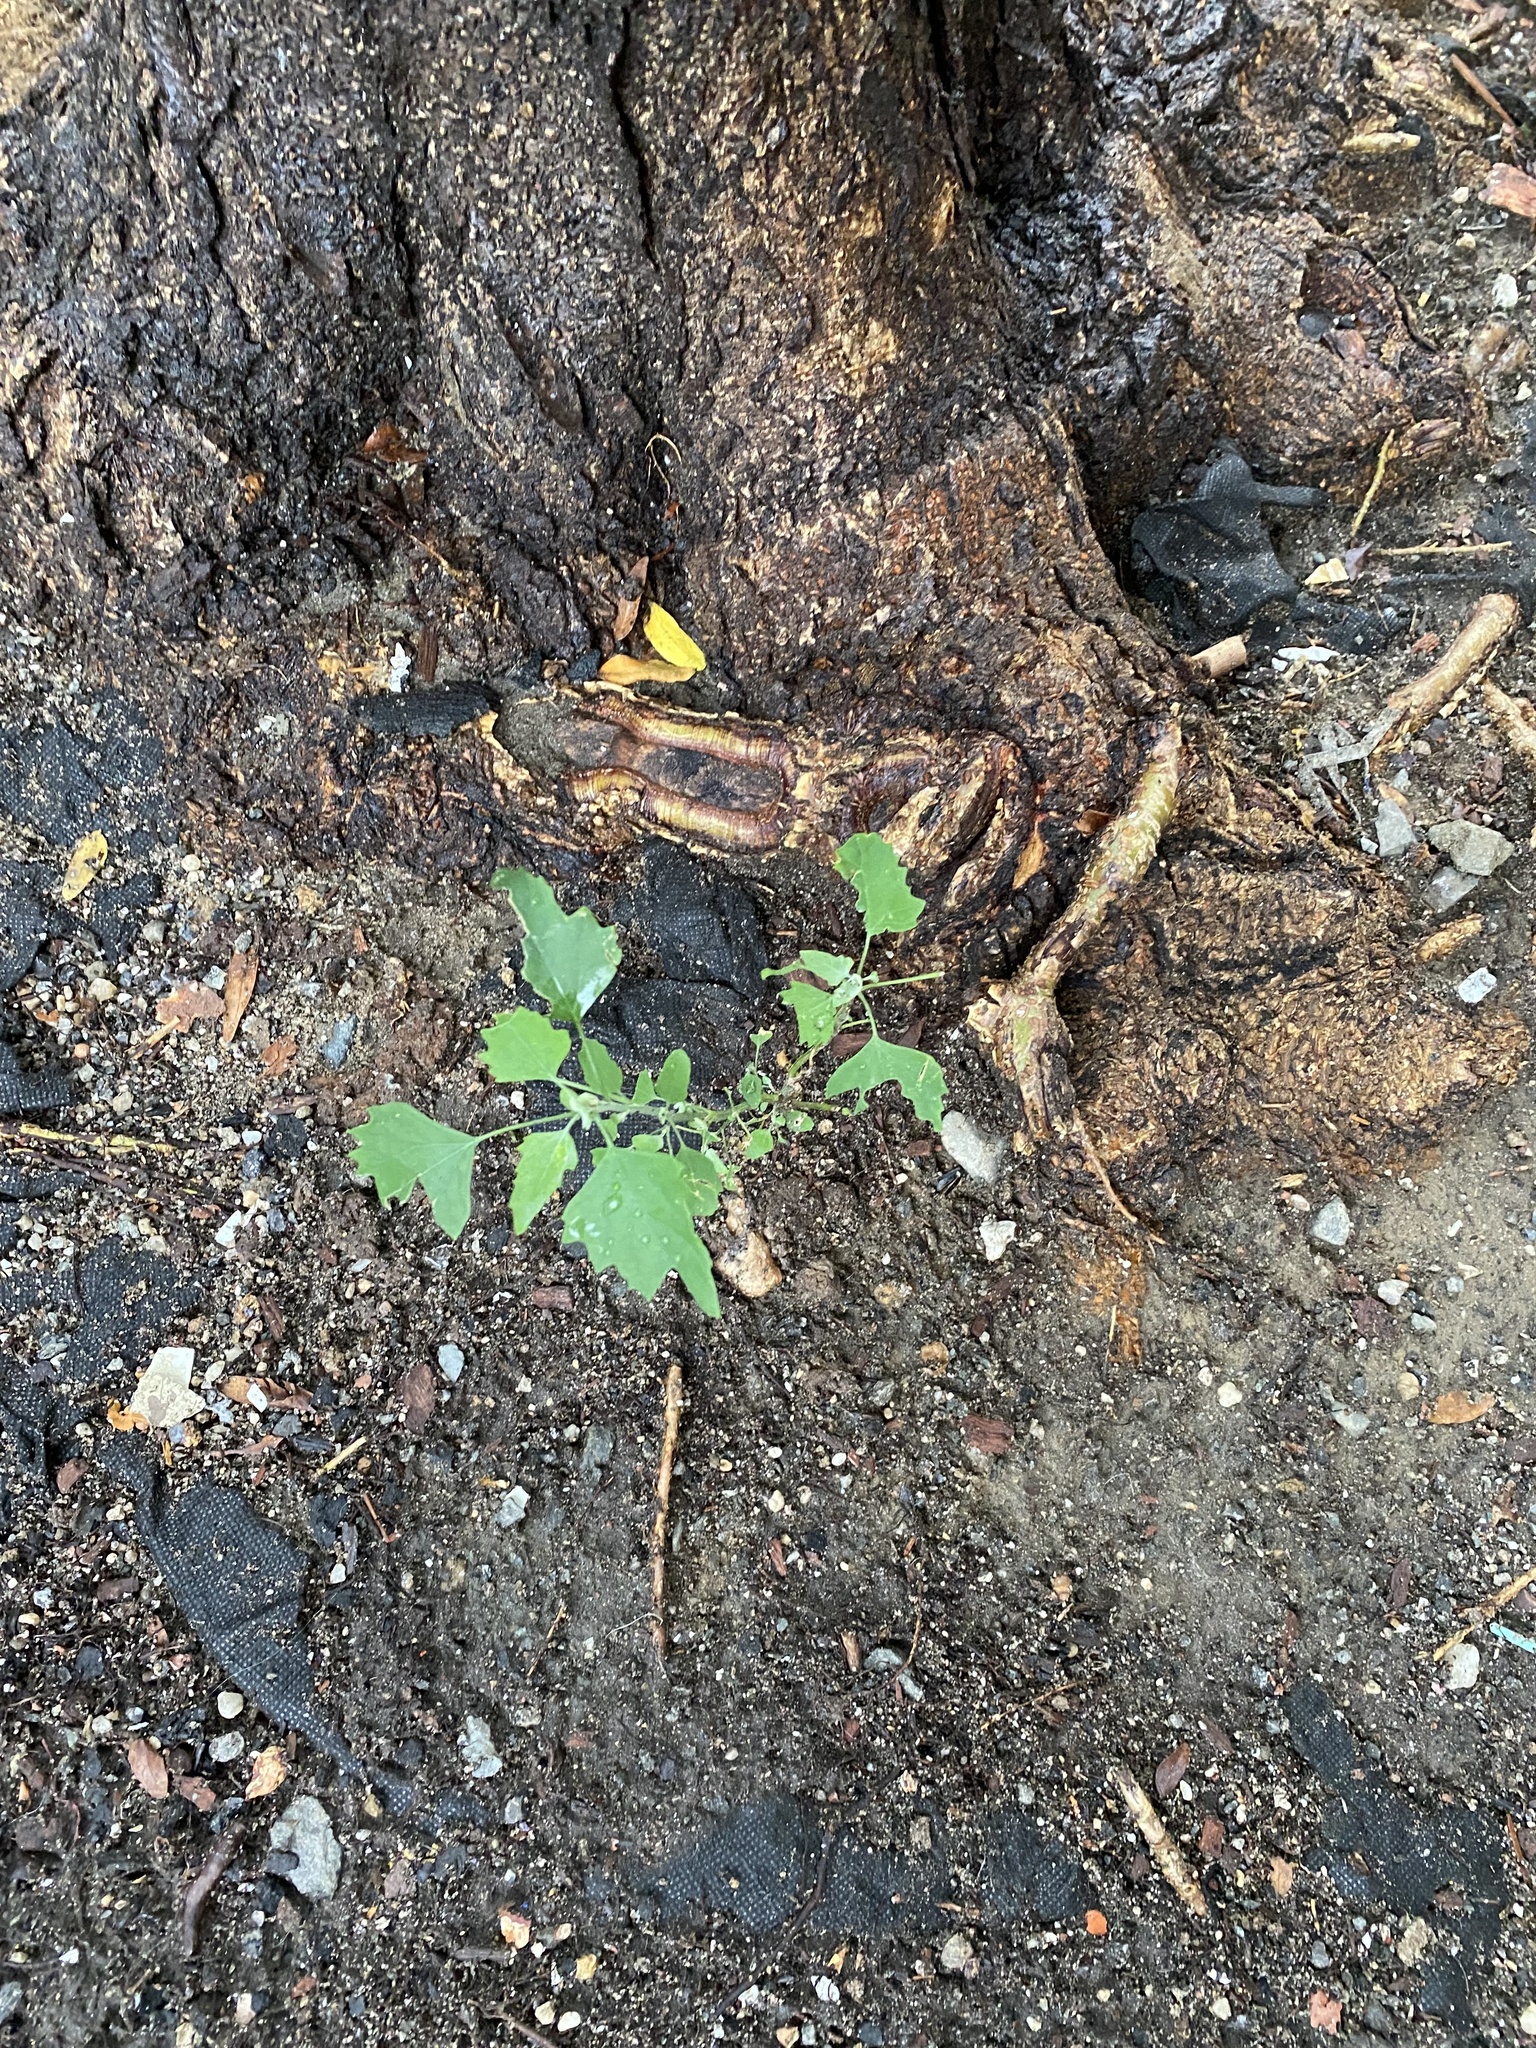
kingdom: Plantae
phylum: Tracheophyta
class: Magnoliopsida
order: Caryophyllales
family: Amaranthaceae
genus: Chenopodium
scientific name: Chenopodium album
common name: Fat-hen
